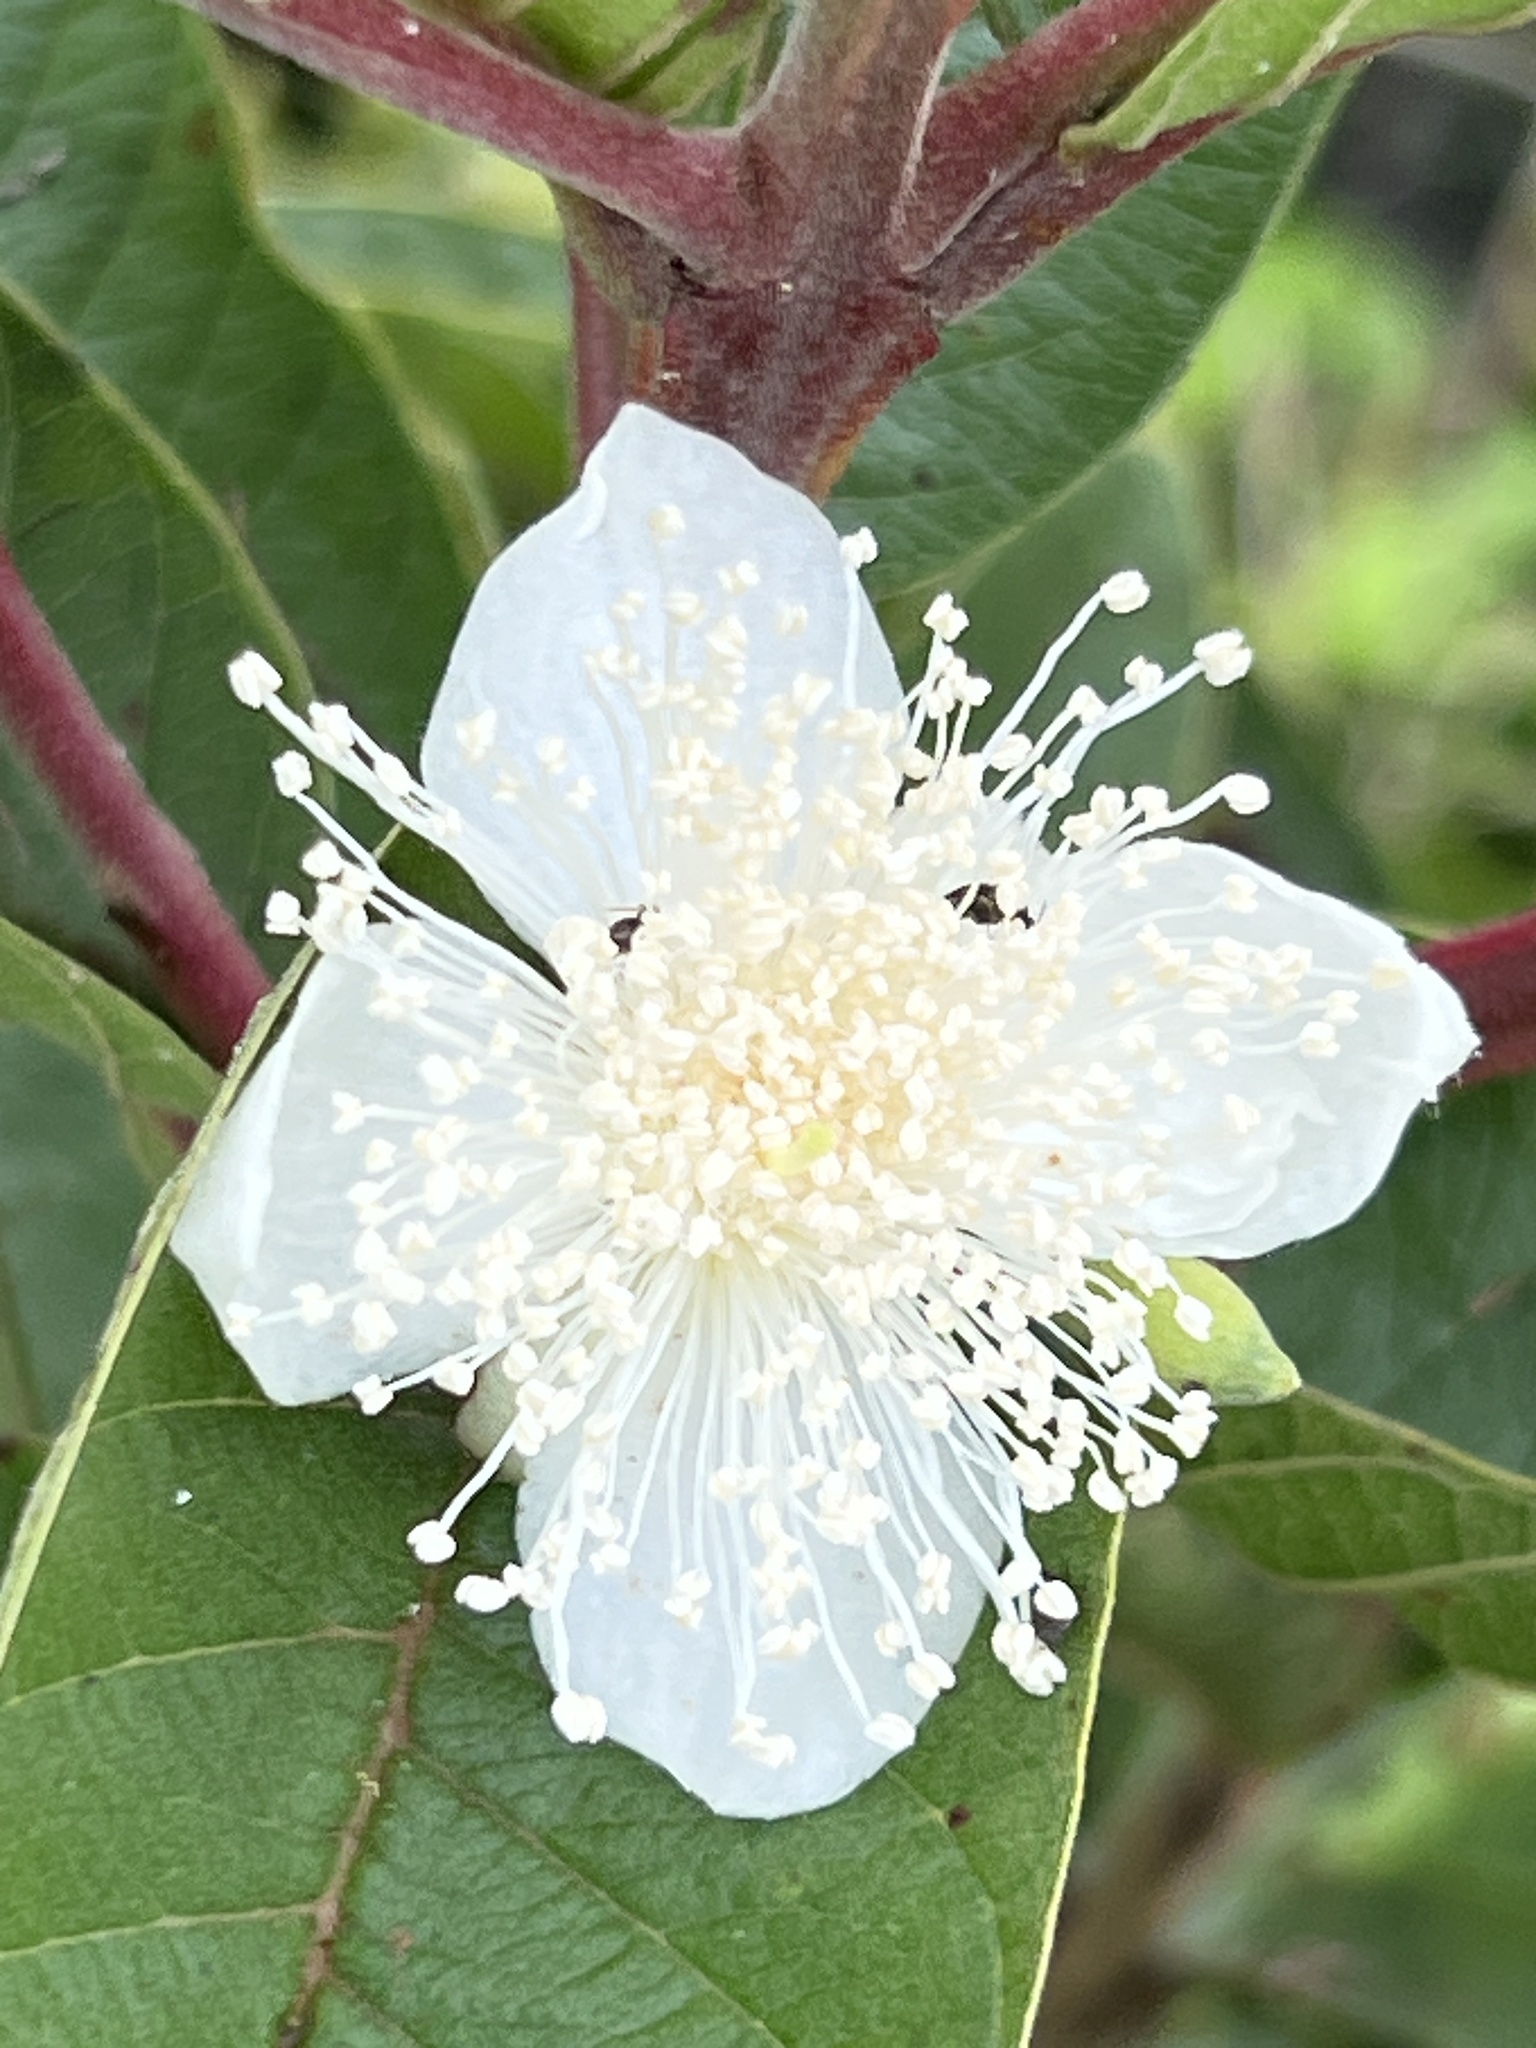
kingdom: Plantae
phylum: Tracheophyta
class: Magnoliopsida
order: Myrtales
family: Myrtaceae
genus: Psidium
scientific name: Psidium guajava
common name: Guava
